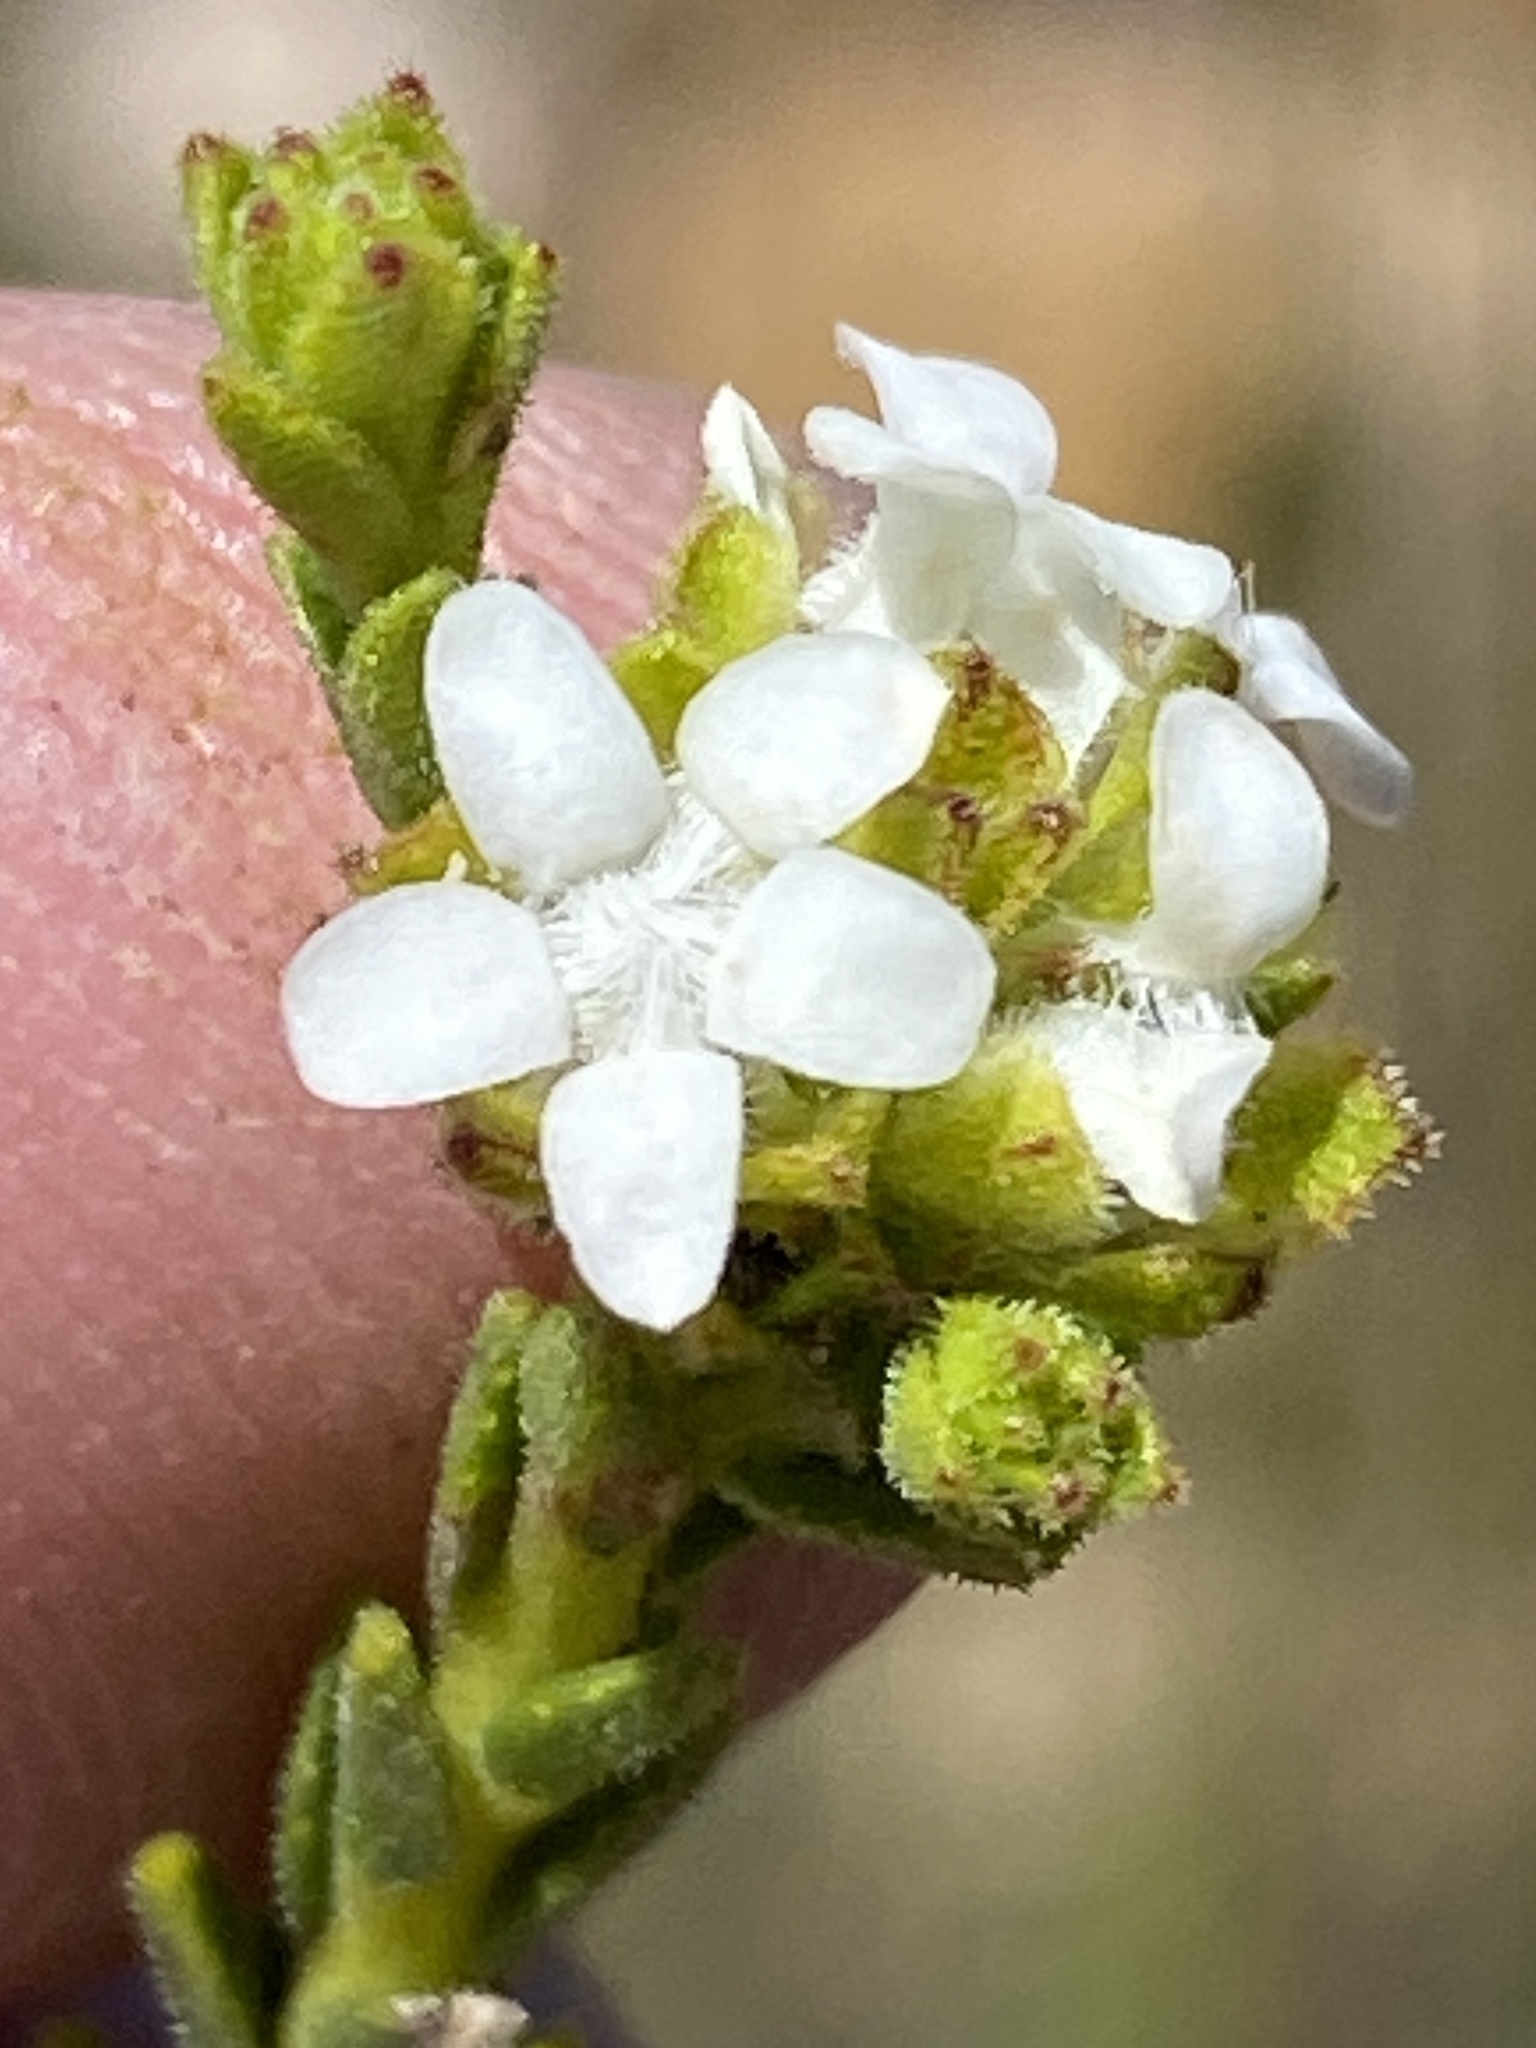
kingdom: Plantae
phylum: Tracheophyta
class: Magnoliopsida
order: Sapindales
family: Rutaceae
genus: Euchaetis
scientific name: Euchaetis vallis-simiae
